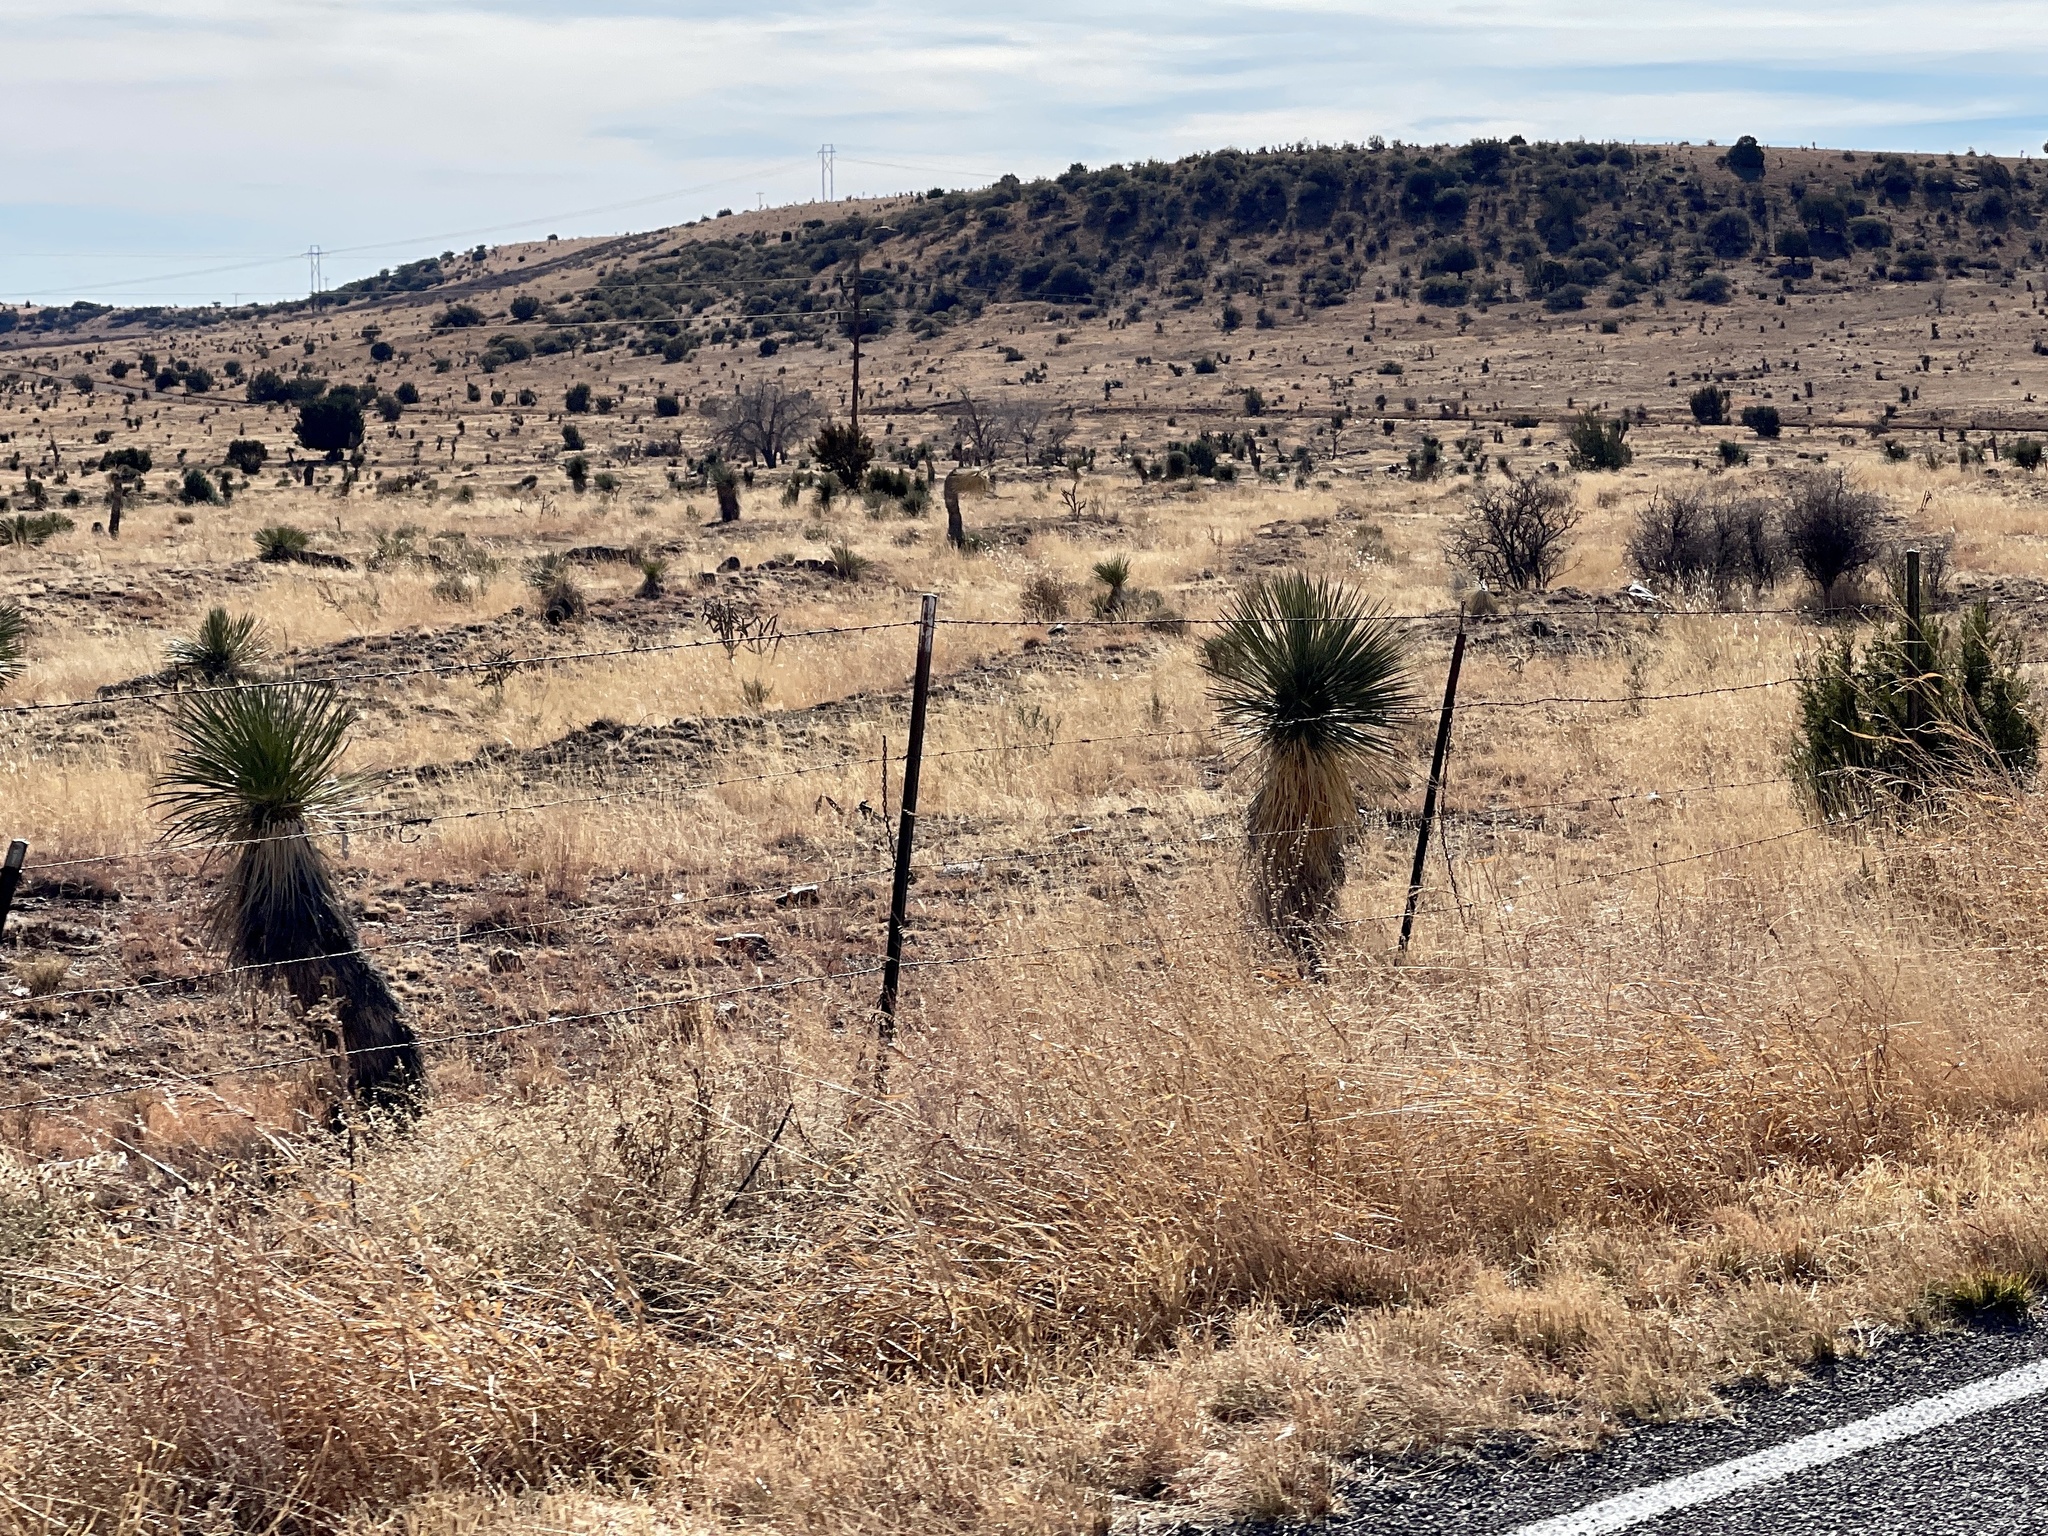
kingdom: Plantae
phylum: Tracheophyta
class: Liliopsida
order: Asparagales
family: Asparagaceae
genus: Yucca
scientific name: Yucca elata
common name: Palmella
